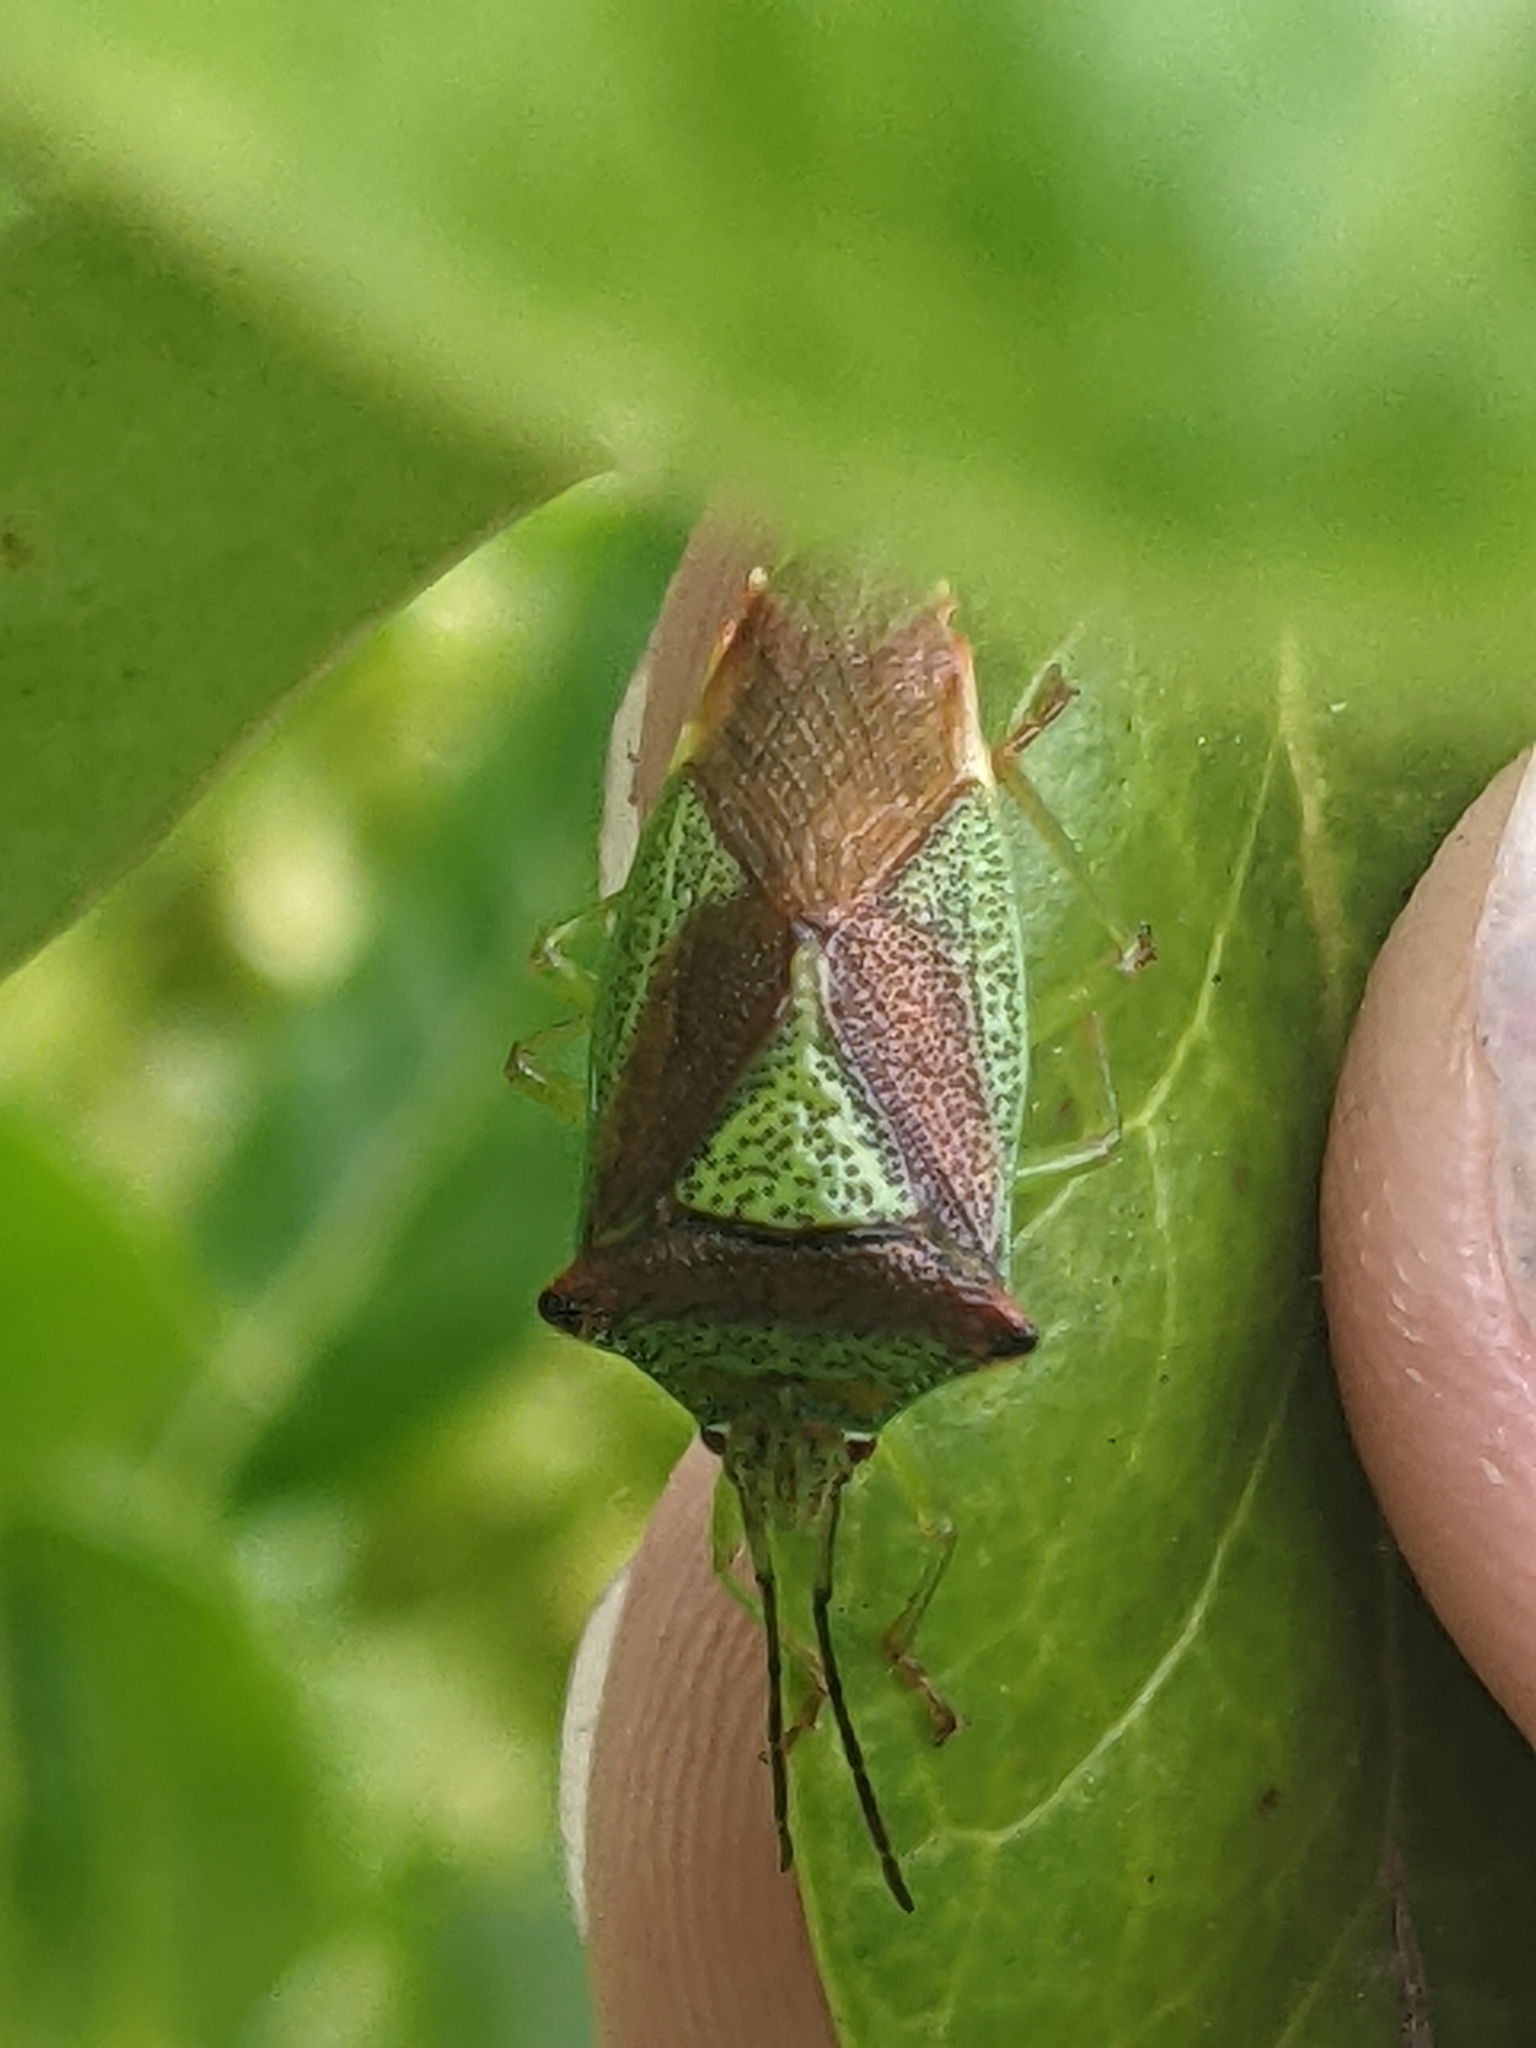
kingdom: Animalia
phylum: Arthropoda
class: Insecta
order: Hemiptera
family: Acanthosomatidae
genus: Acanthosoma
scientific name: Acanthosoma haemorrhoidale
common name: Hawthorn shieldbug
